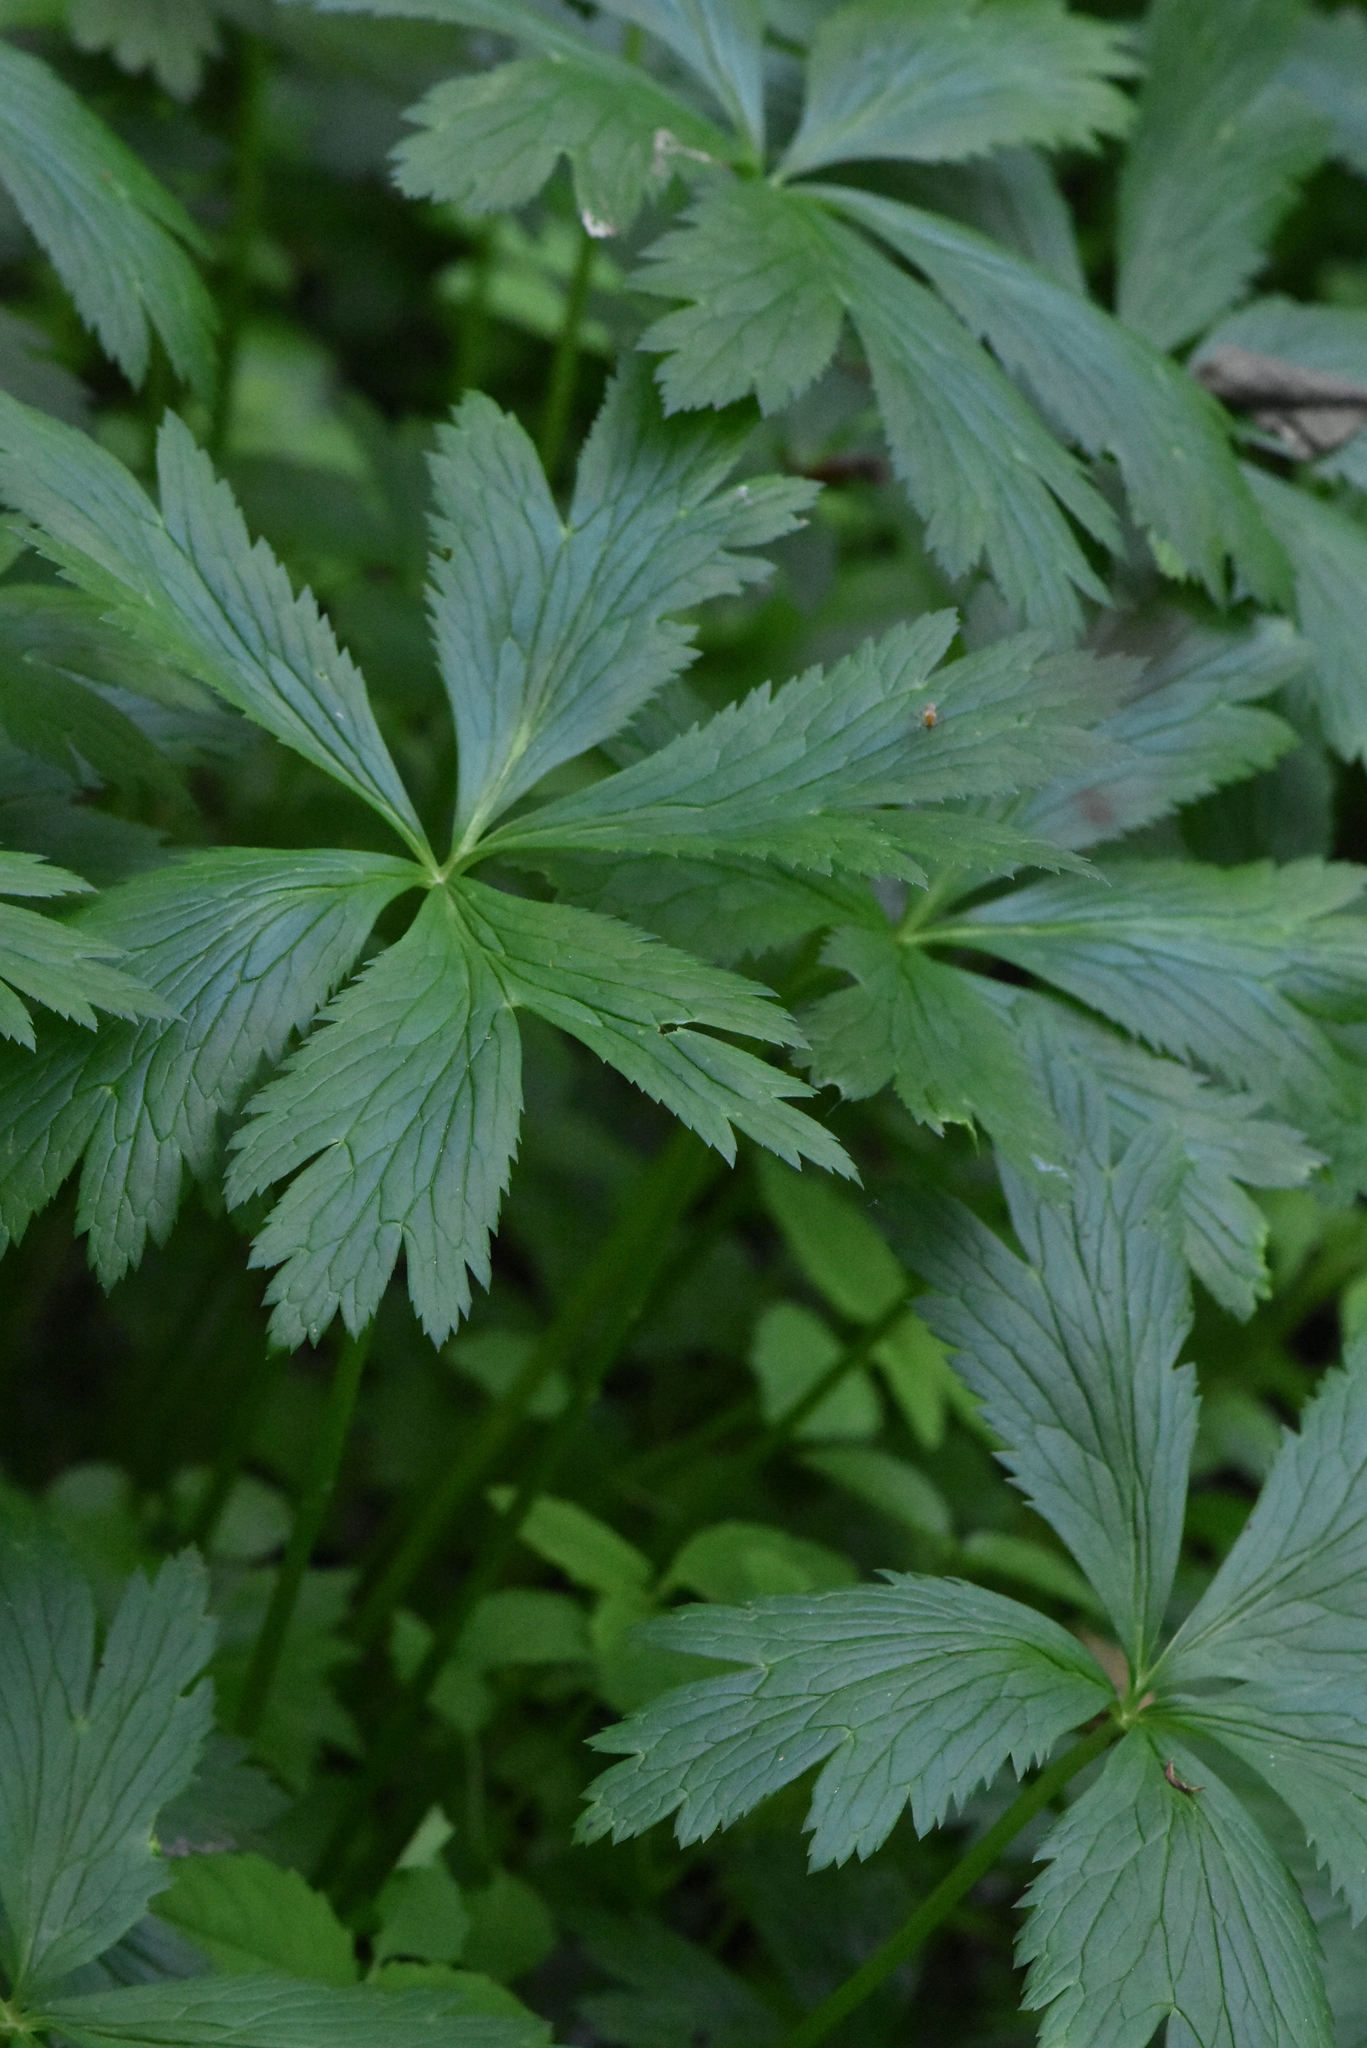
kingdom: Plantae
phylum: Tracheophyta
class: Magnoliopsida
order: Ranunculales
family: Ranunculaceae
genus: Trollius
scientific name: Trollius europaeus
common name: European globeflower
